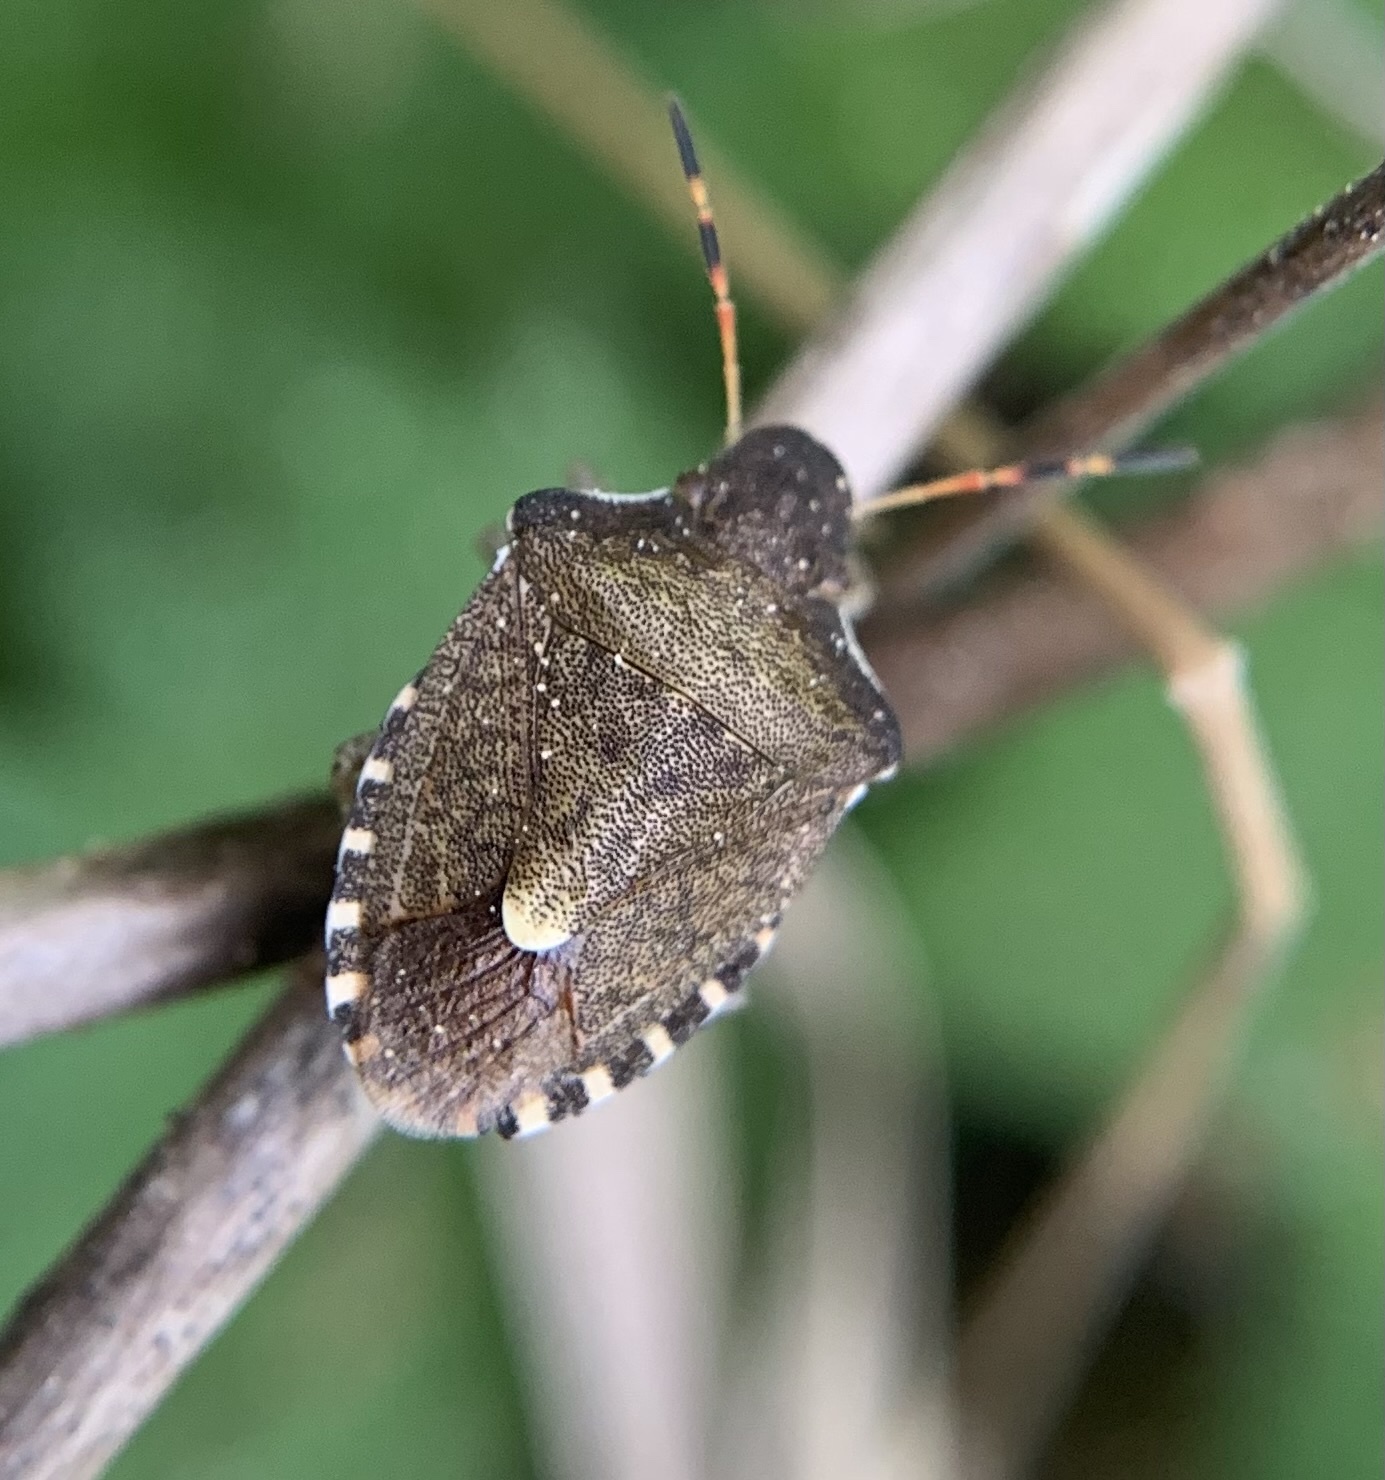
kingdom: Animalia
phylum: Arthropoda
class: Insecta
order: Hemiptera
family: Pentatomidae
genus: Holcostethus
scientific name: Holcostethus strictus
